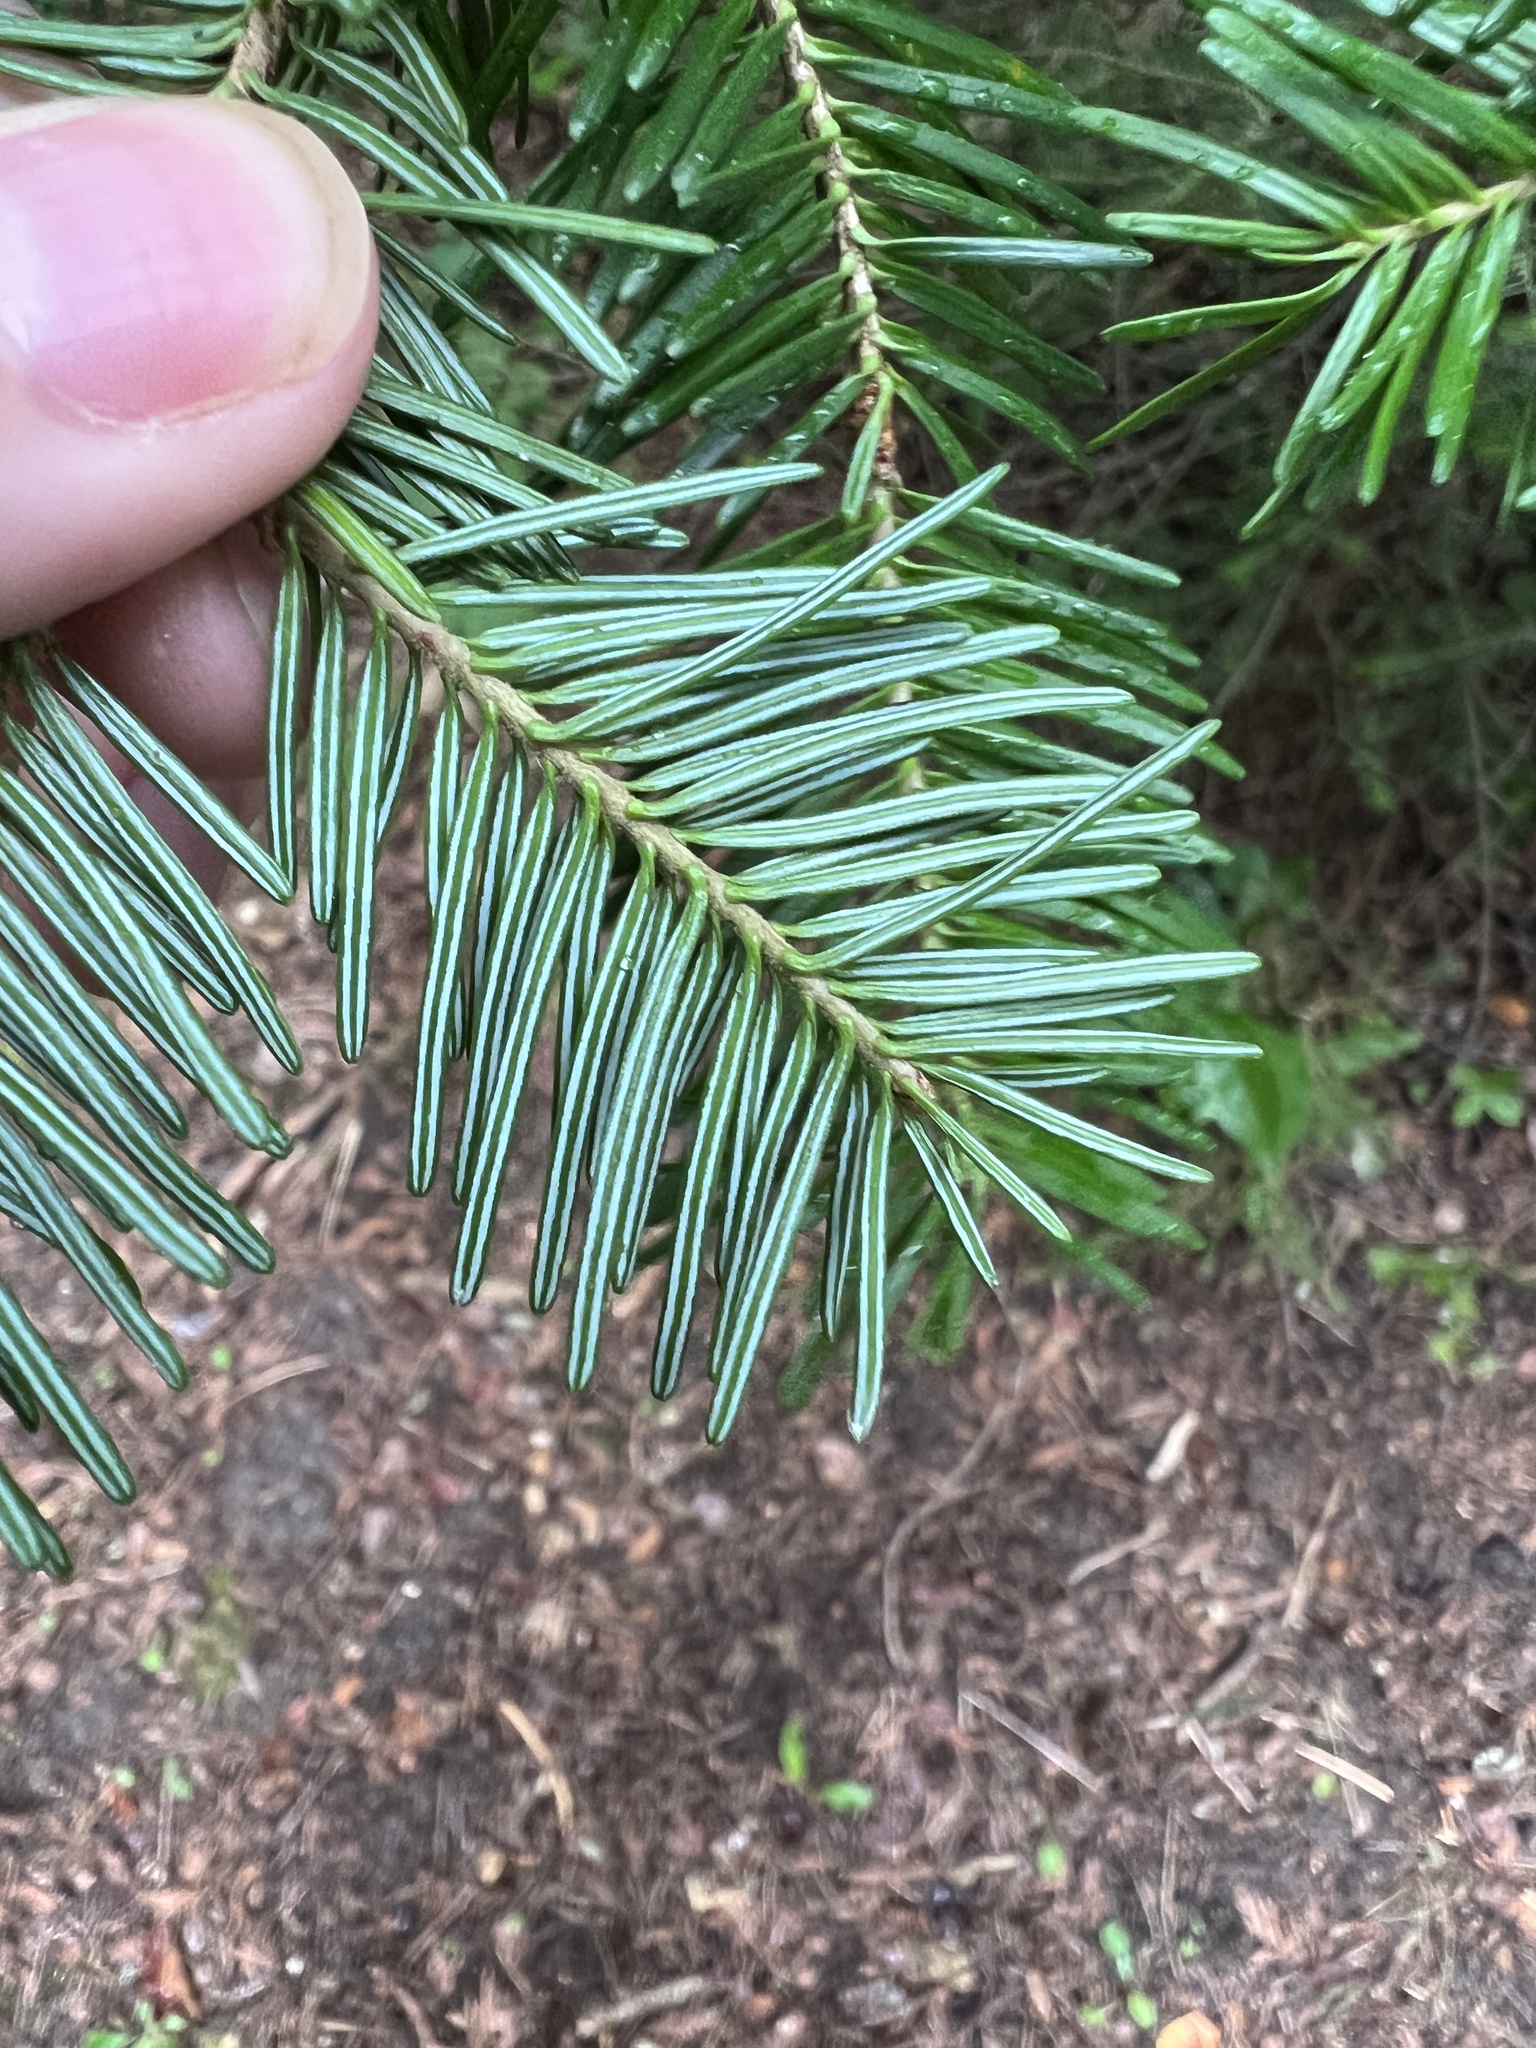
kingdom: Plantae
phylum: Tracheophyta
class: Pinopsida
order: Pinales
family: Pinaceae
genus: Abies
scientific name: Abies balsamea
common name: Balsam fir
